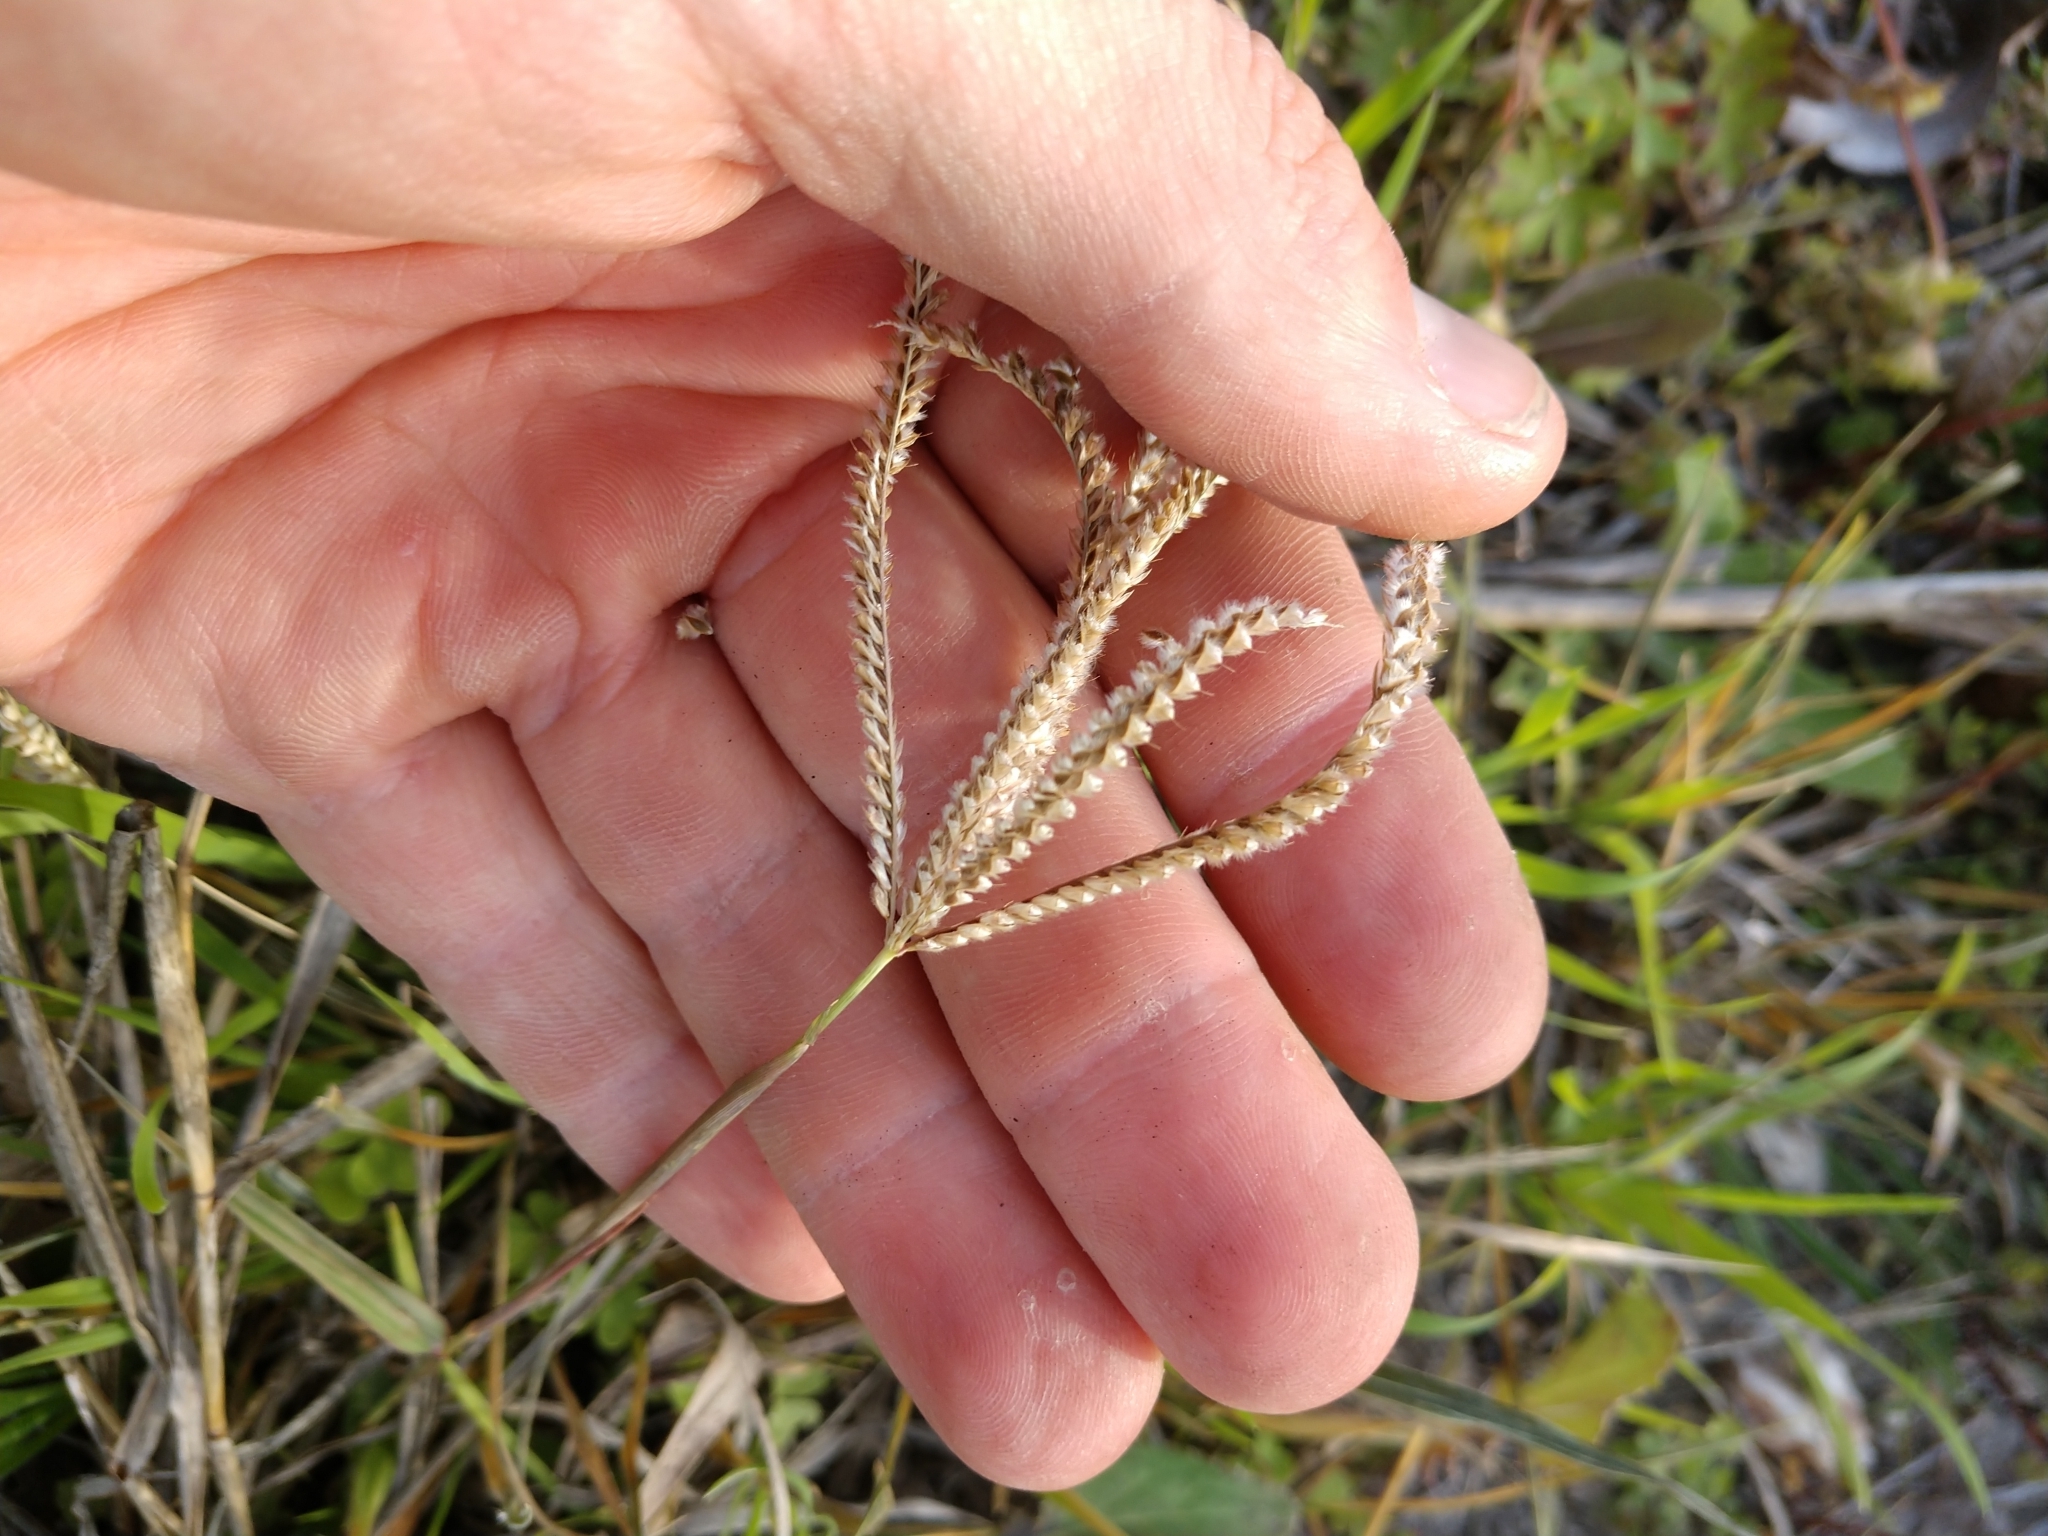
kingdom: Plantae
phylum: Tracheophyta
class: Liliopsida
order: Poales
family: Poaceae
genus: Stapfochloa
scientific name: Stapfochloa ciliata
